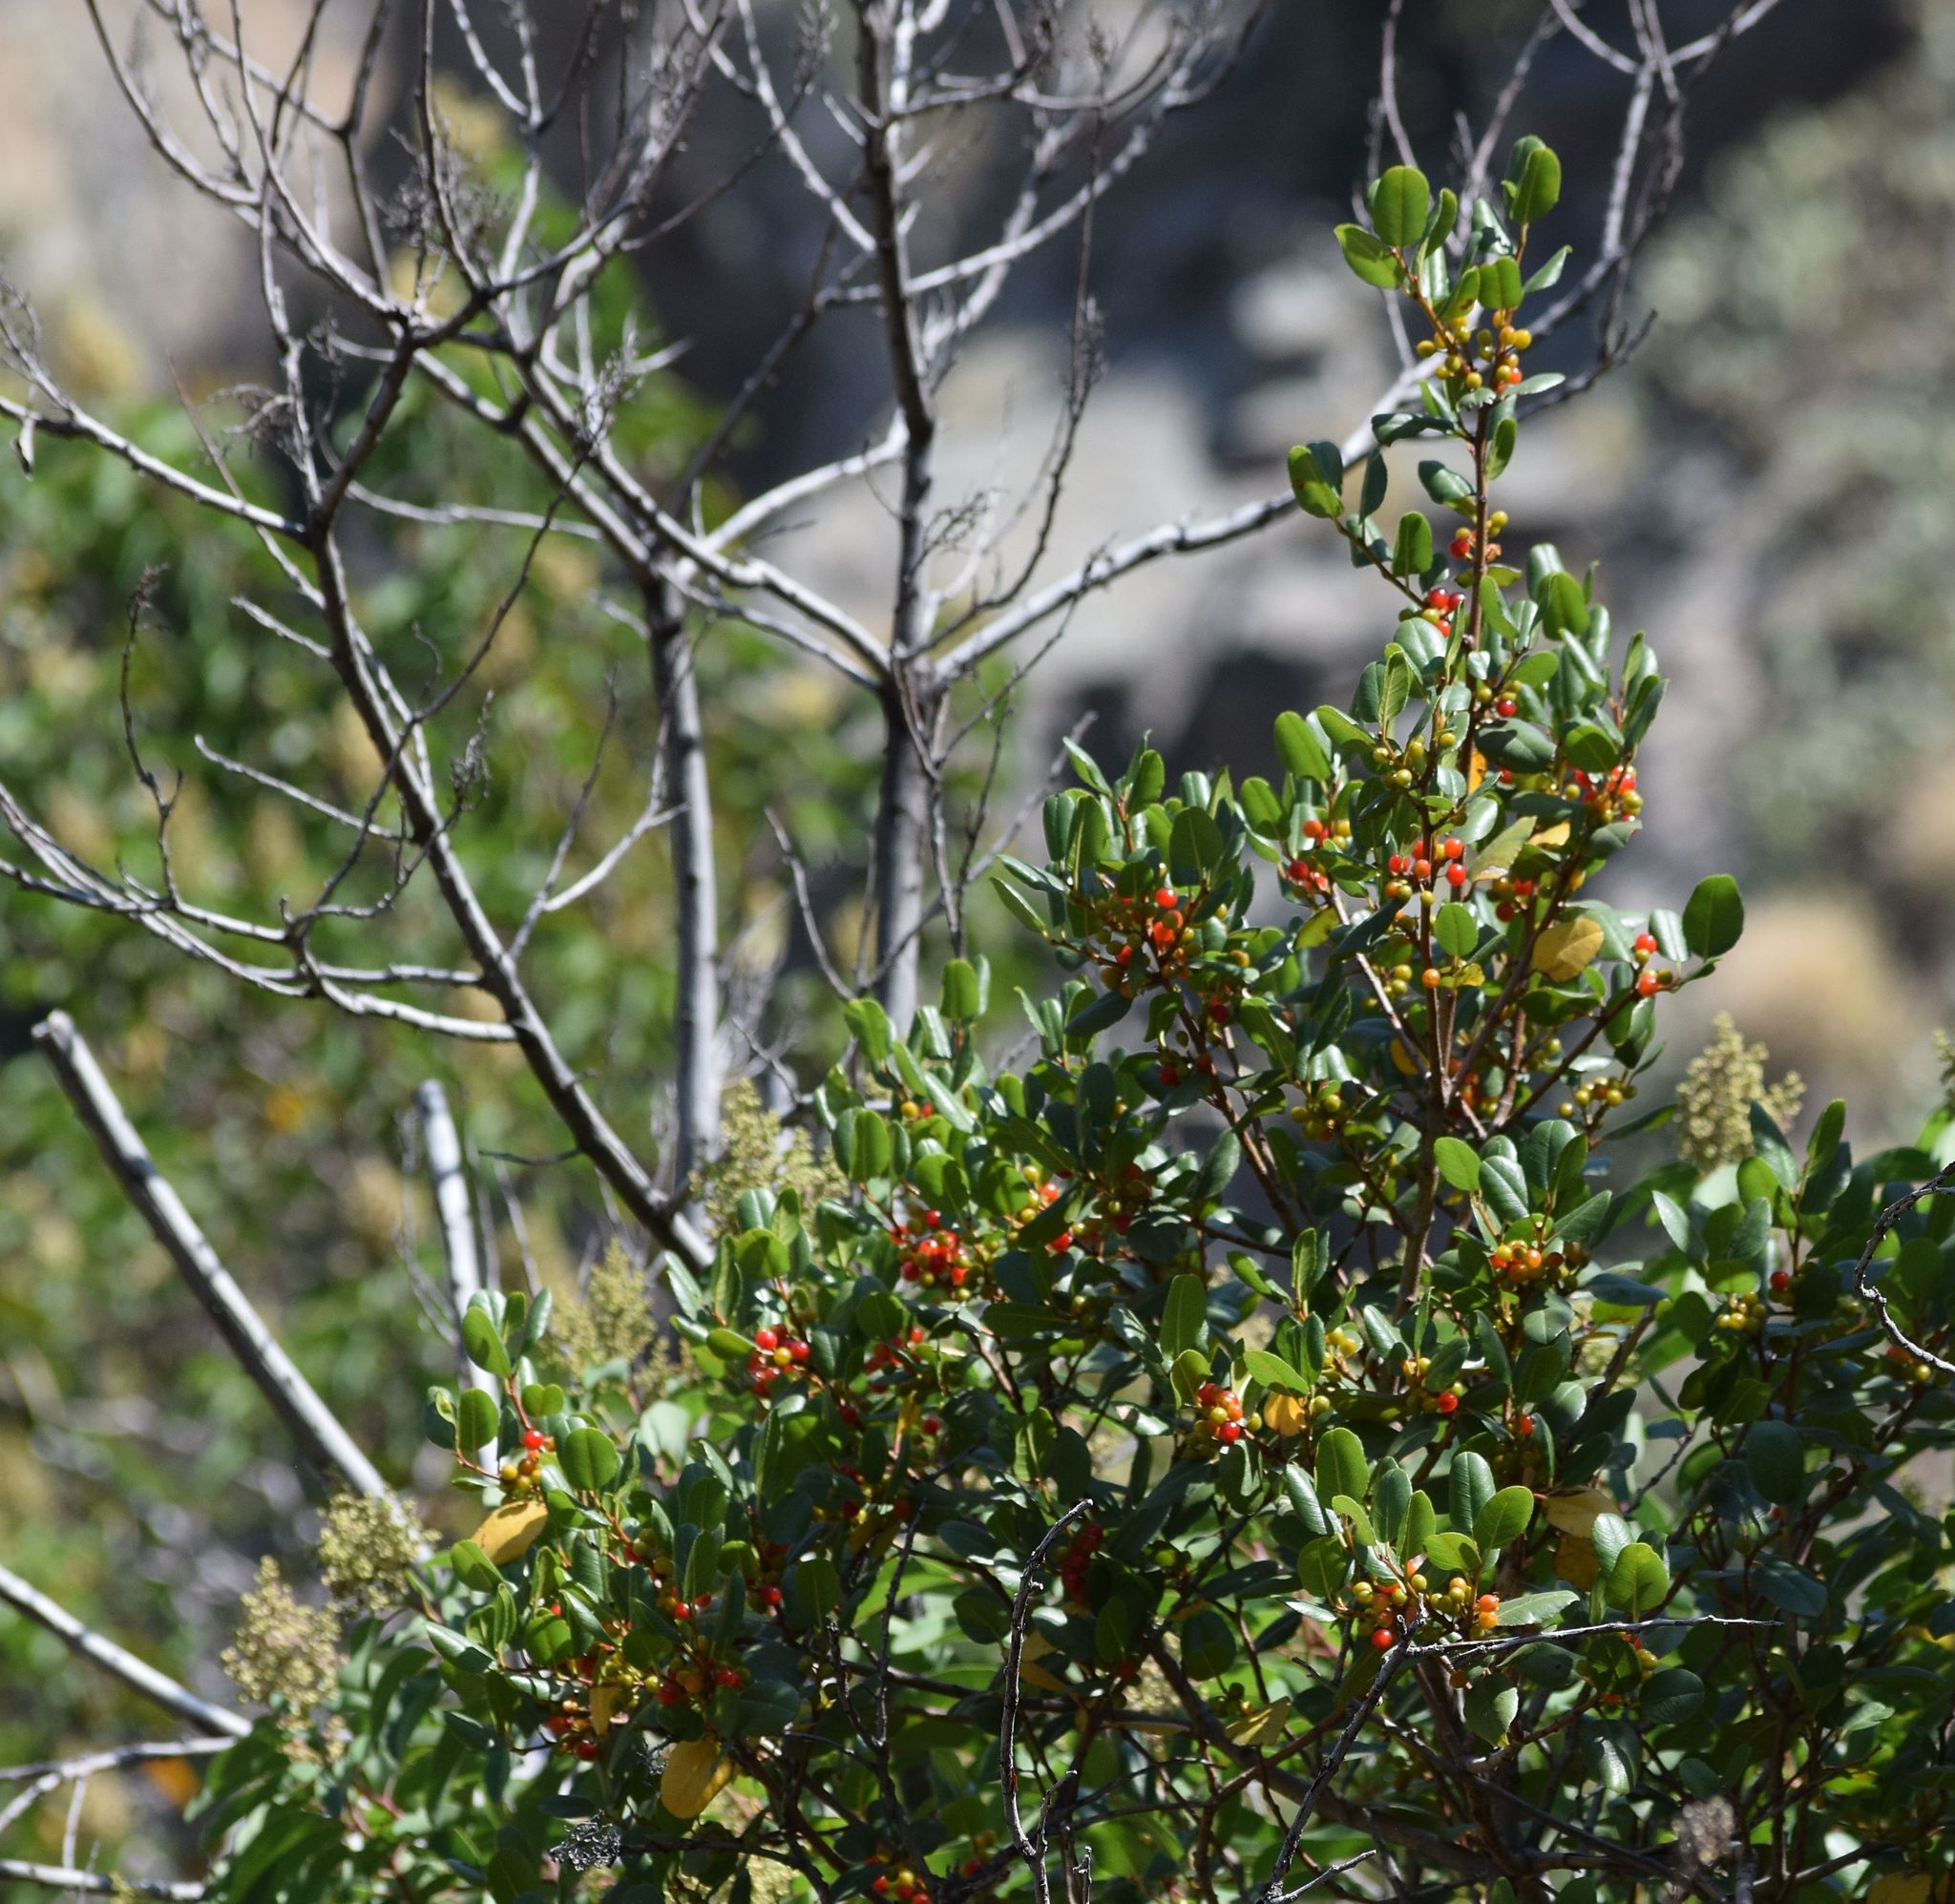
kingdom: Plantae
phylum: Tracheophyta
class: Magnoliopsida
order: Rosales
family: Rhamnaceae
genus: Endotropis
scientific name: Endotropis crocea
